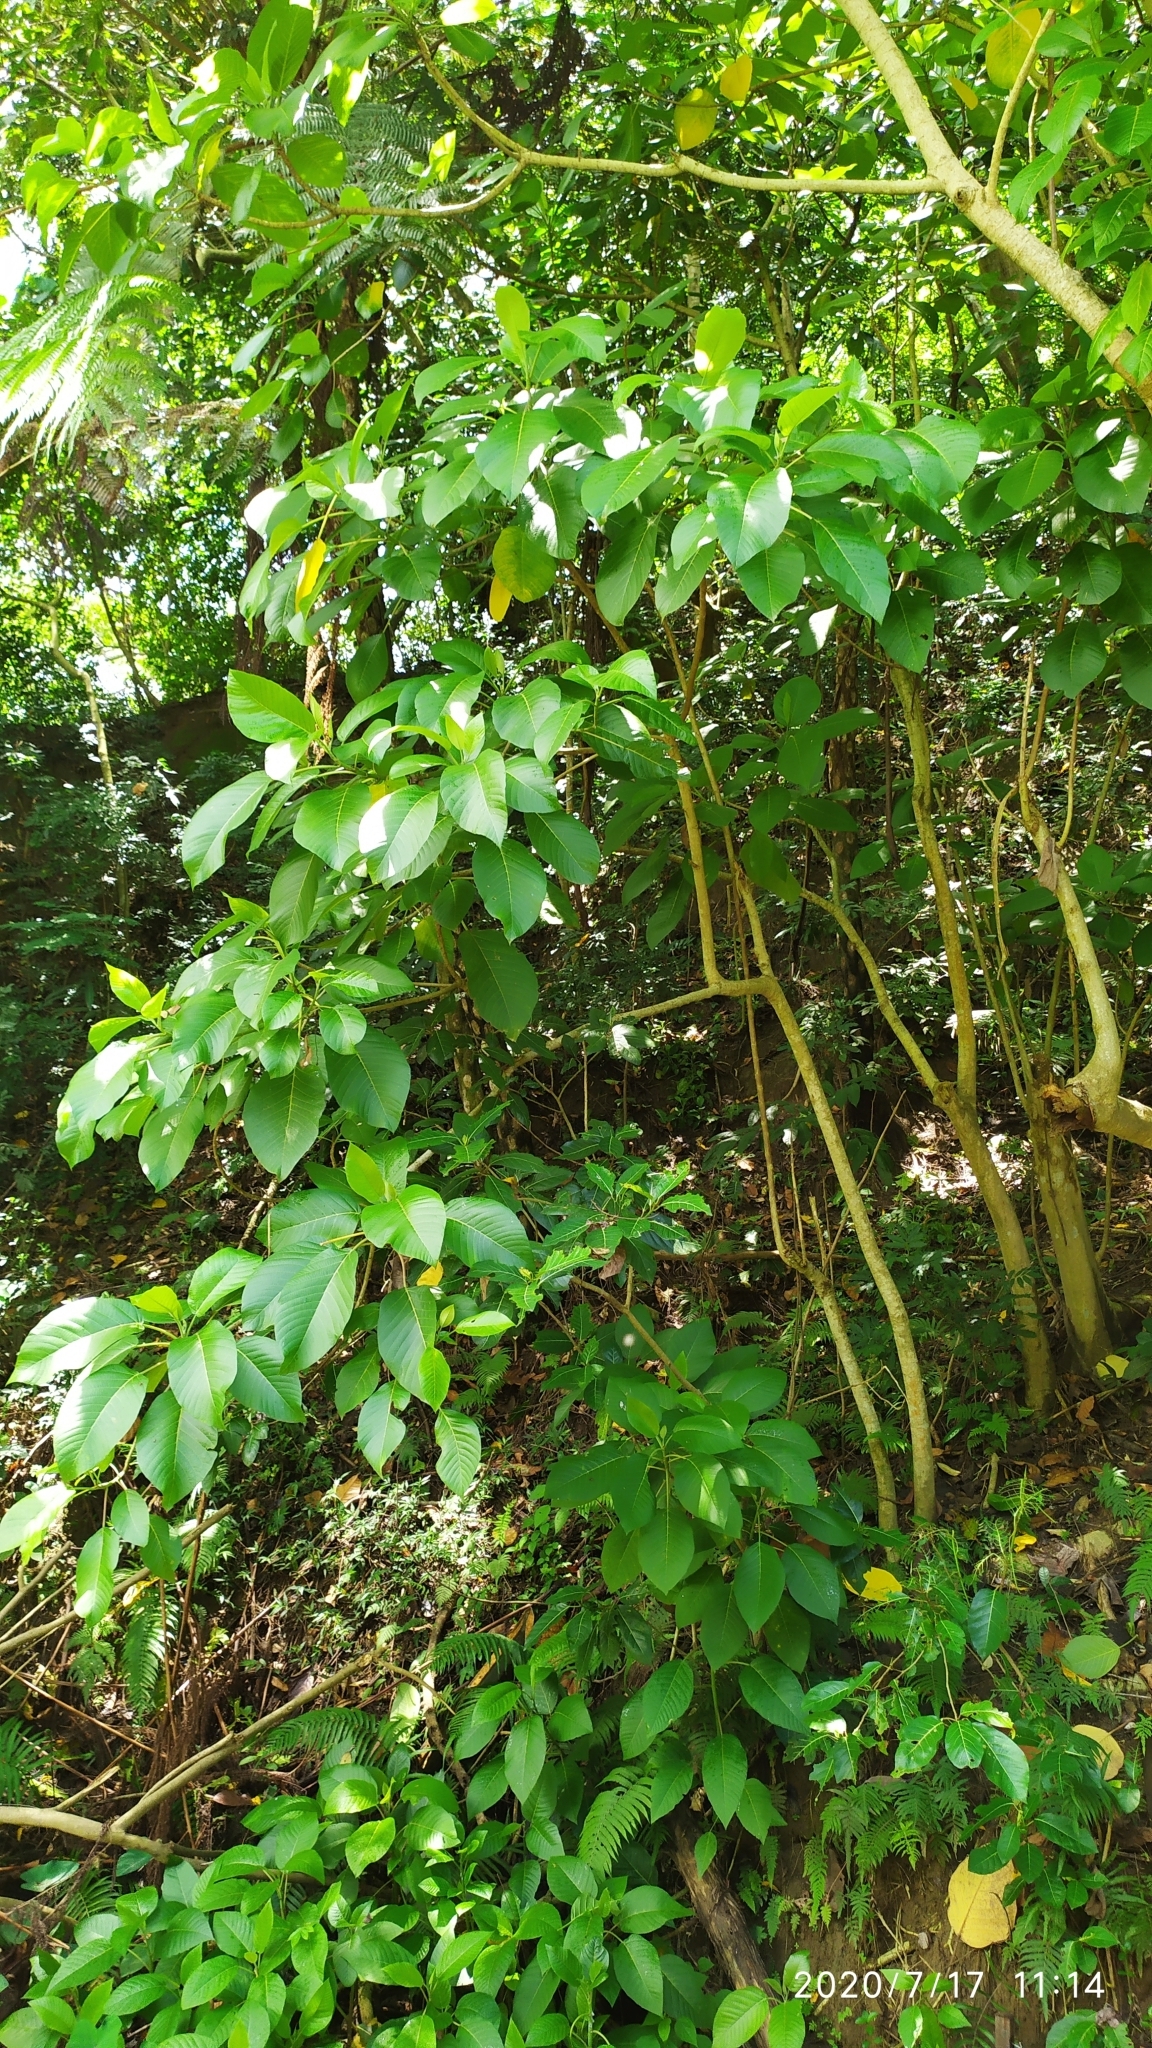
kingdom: Plantae
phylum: Tracheophyta
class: Magnoliopsida
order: Rosales
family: Urticaceae
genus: Dendrocnide
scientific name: Dendrocnide meyeniana
